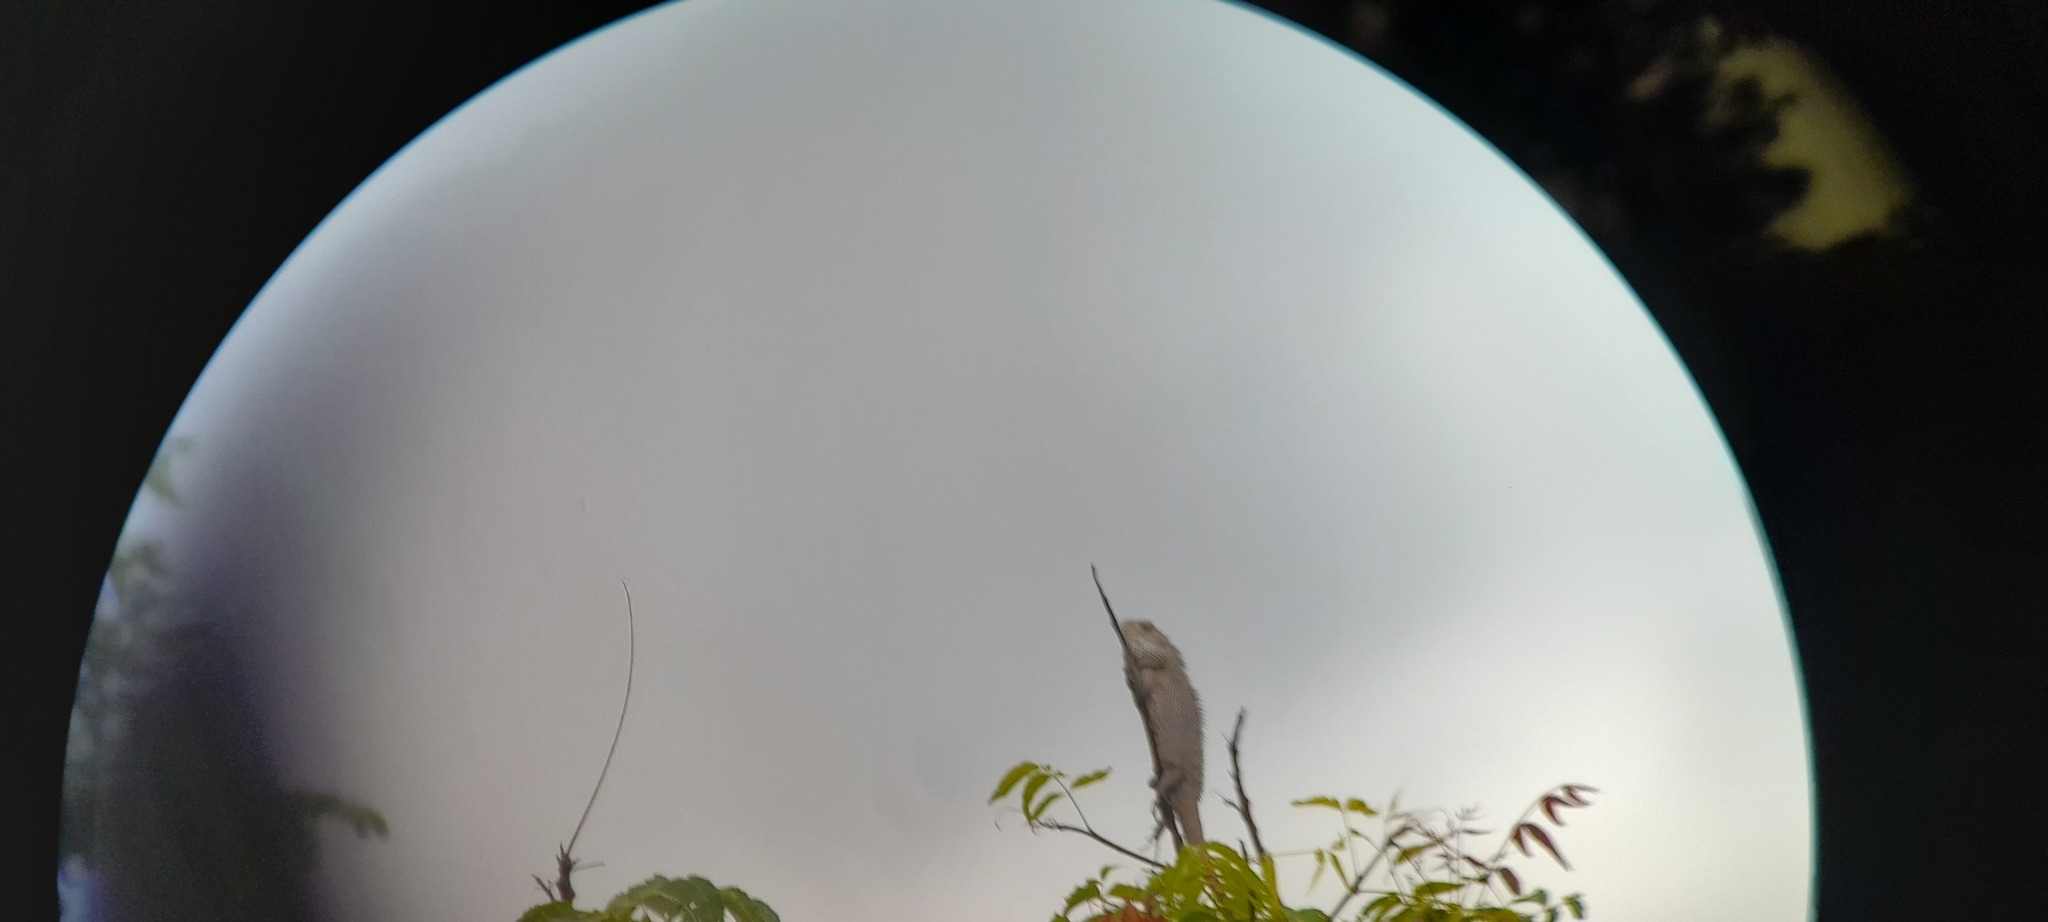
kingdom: Animalia
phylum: Chordata
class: Squamata
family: Agamidae
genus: Calotes
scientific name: Calotes versicolor
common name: Oriental garden lizard
